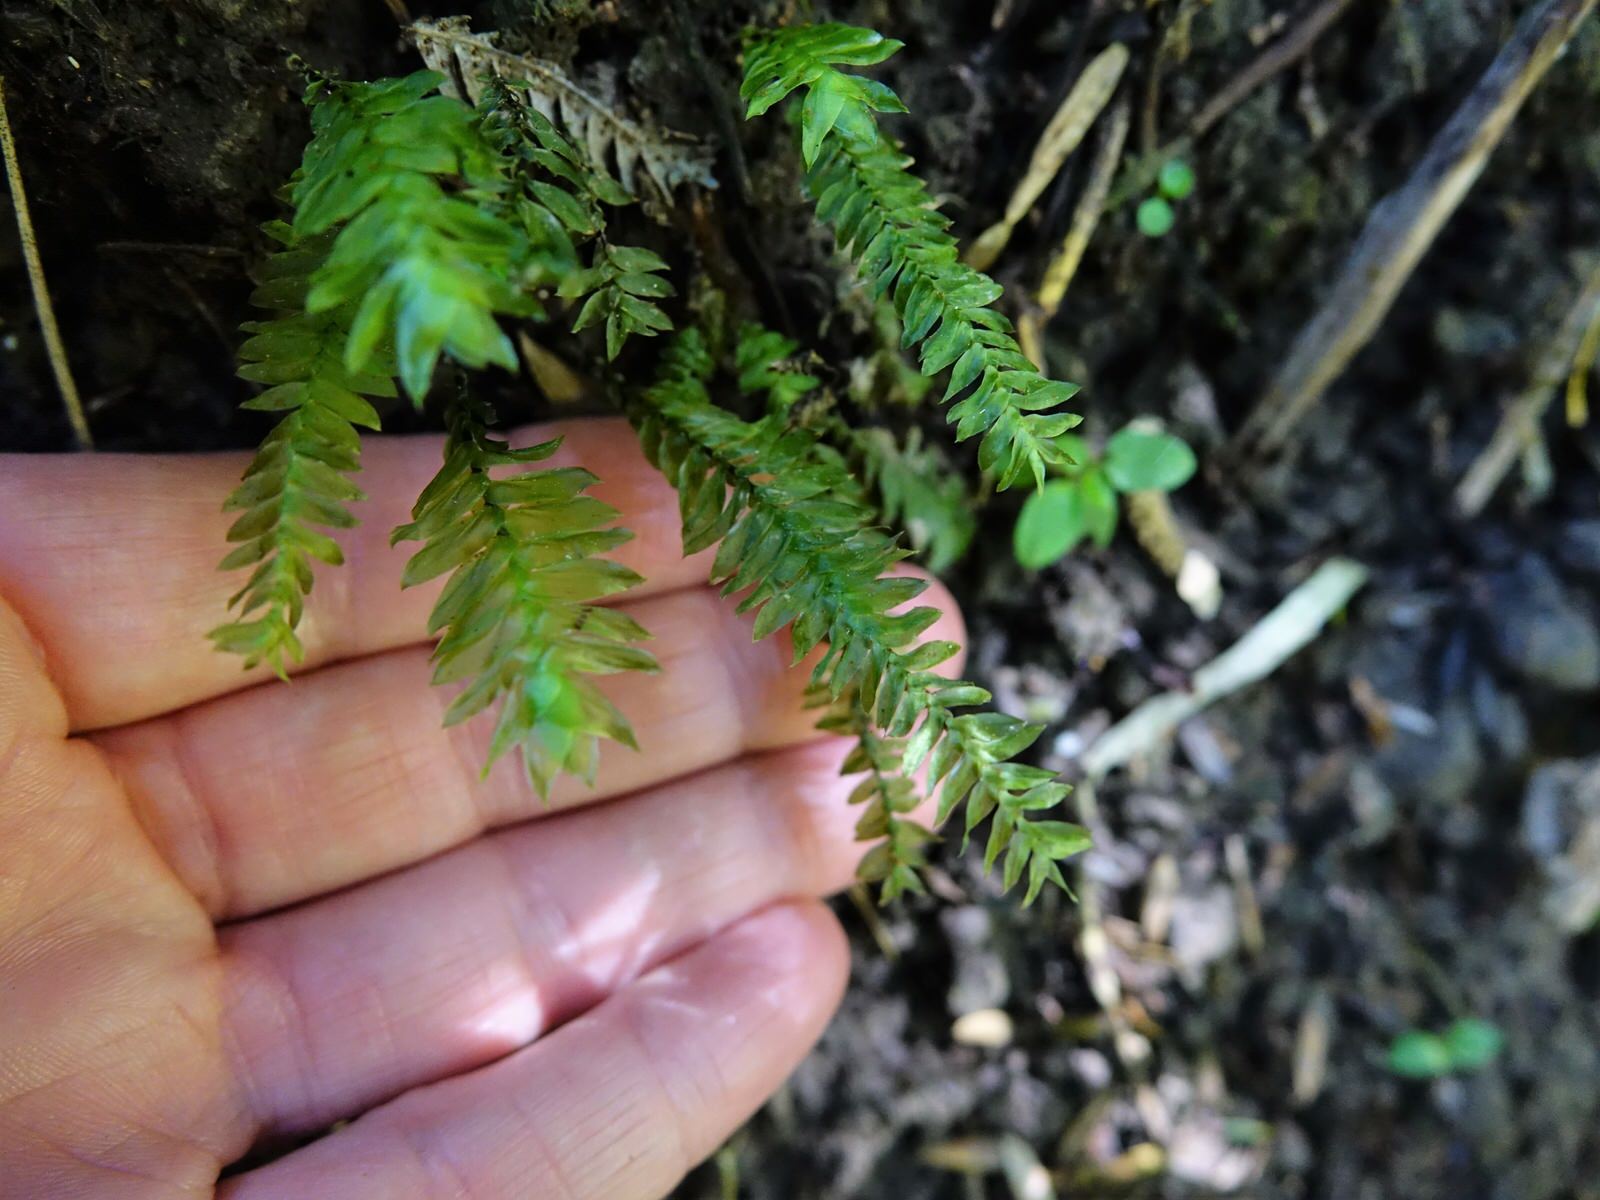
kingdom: Plantae
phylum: Bryophyta
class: Bryopsida
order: Hypopterygiales
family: Hypopterygiaceae
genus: Cyathophorum
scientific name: Cyathophorum bulbosum
